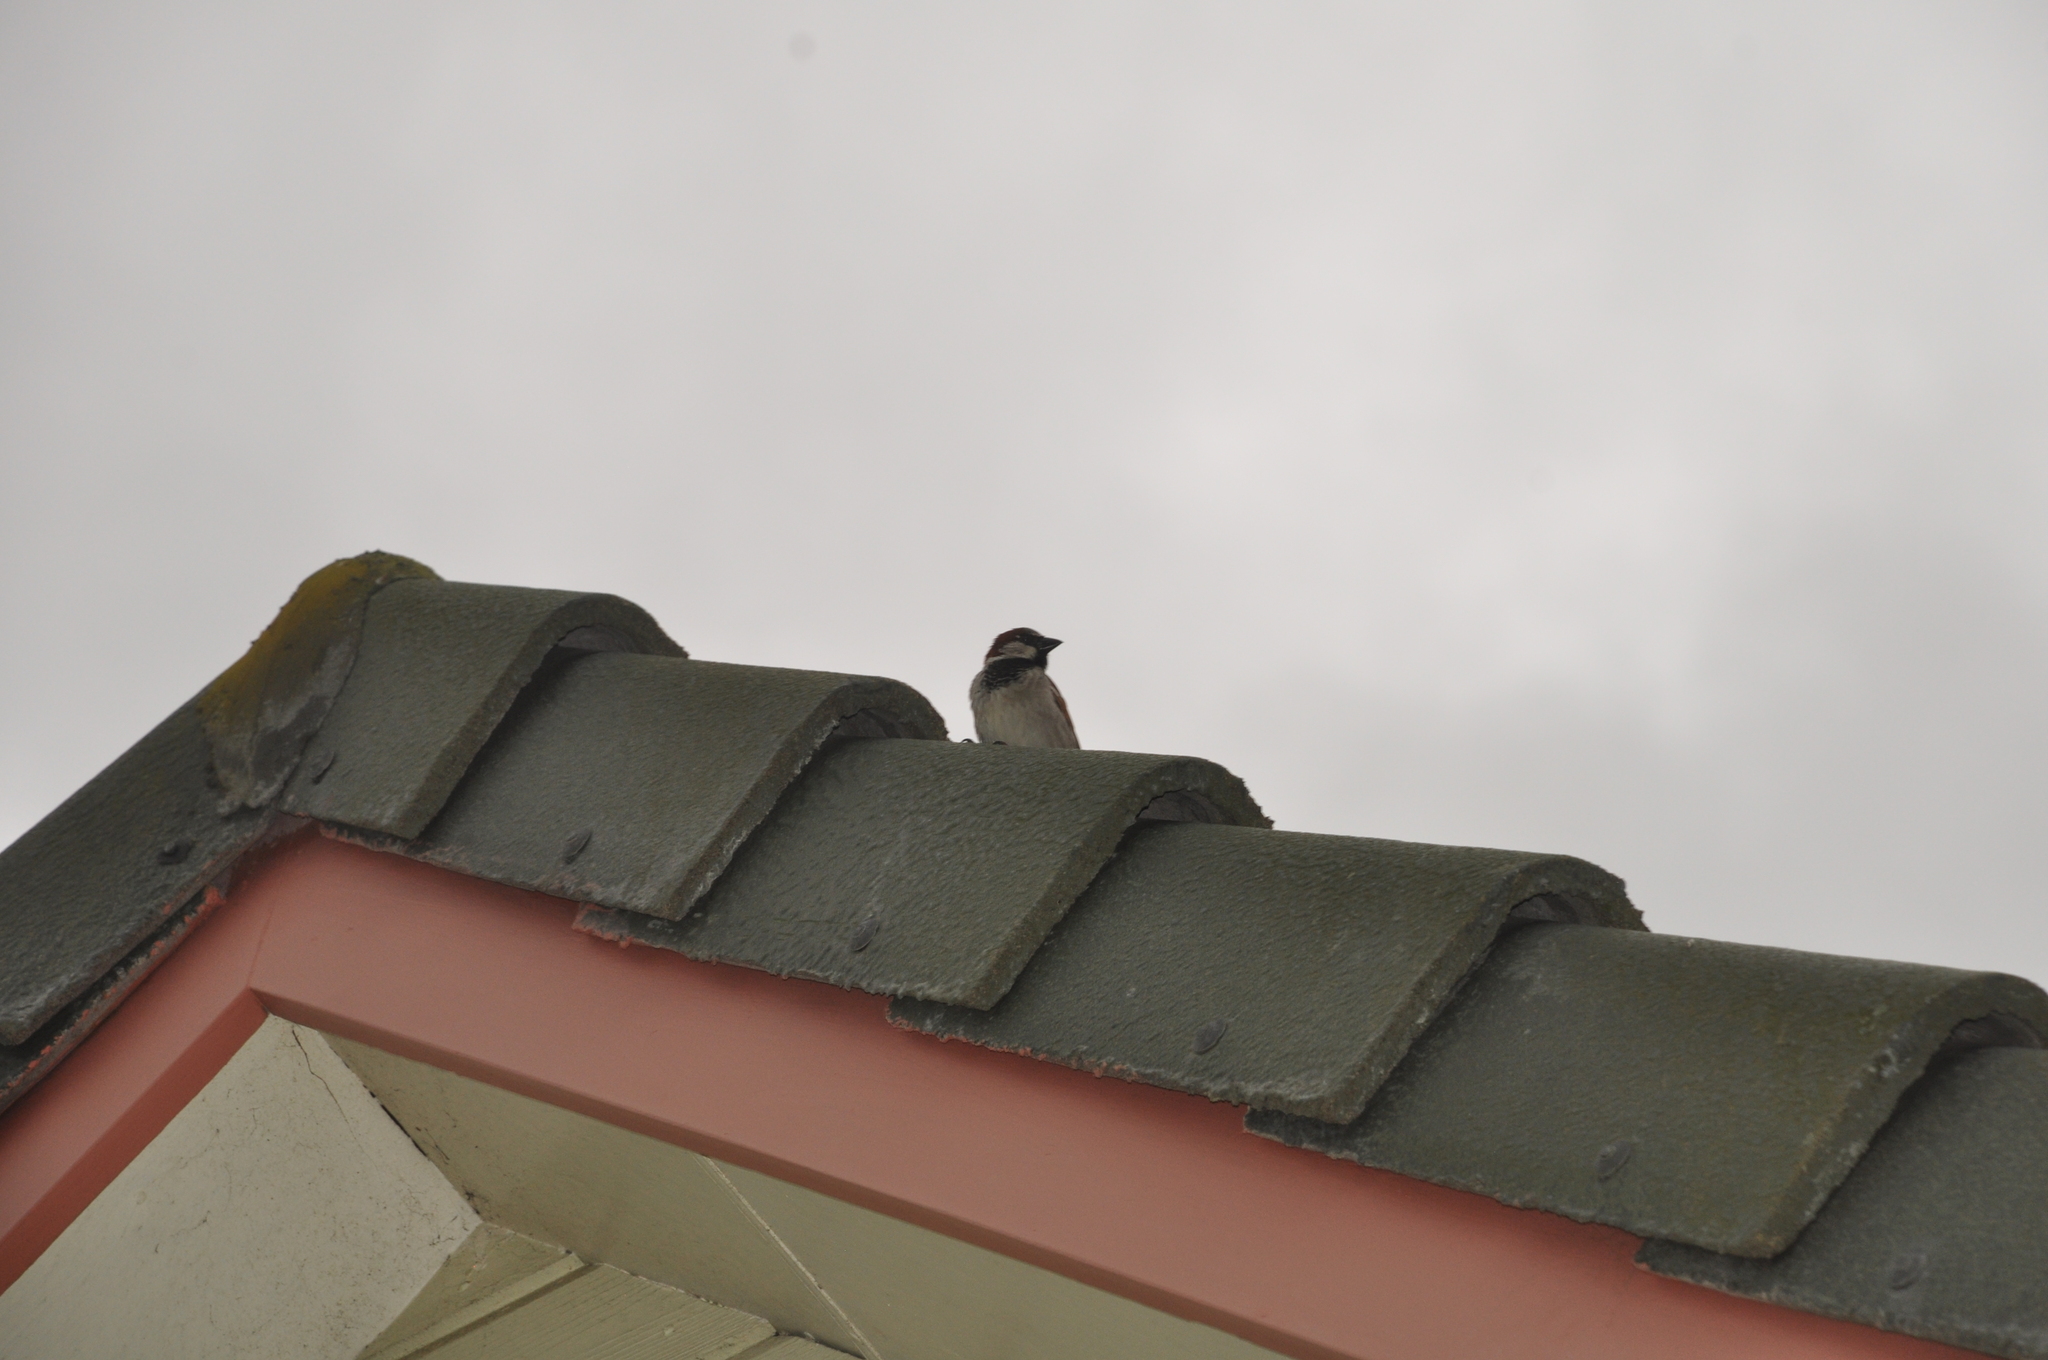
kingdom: Animalia
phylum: Chordata
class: Aves
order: Passeriformes
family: Passeridae
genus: Passer
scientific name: Passer domesticus
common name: House sparrow
